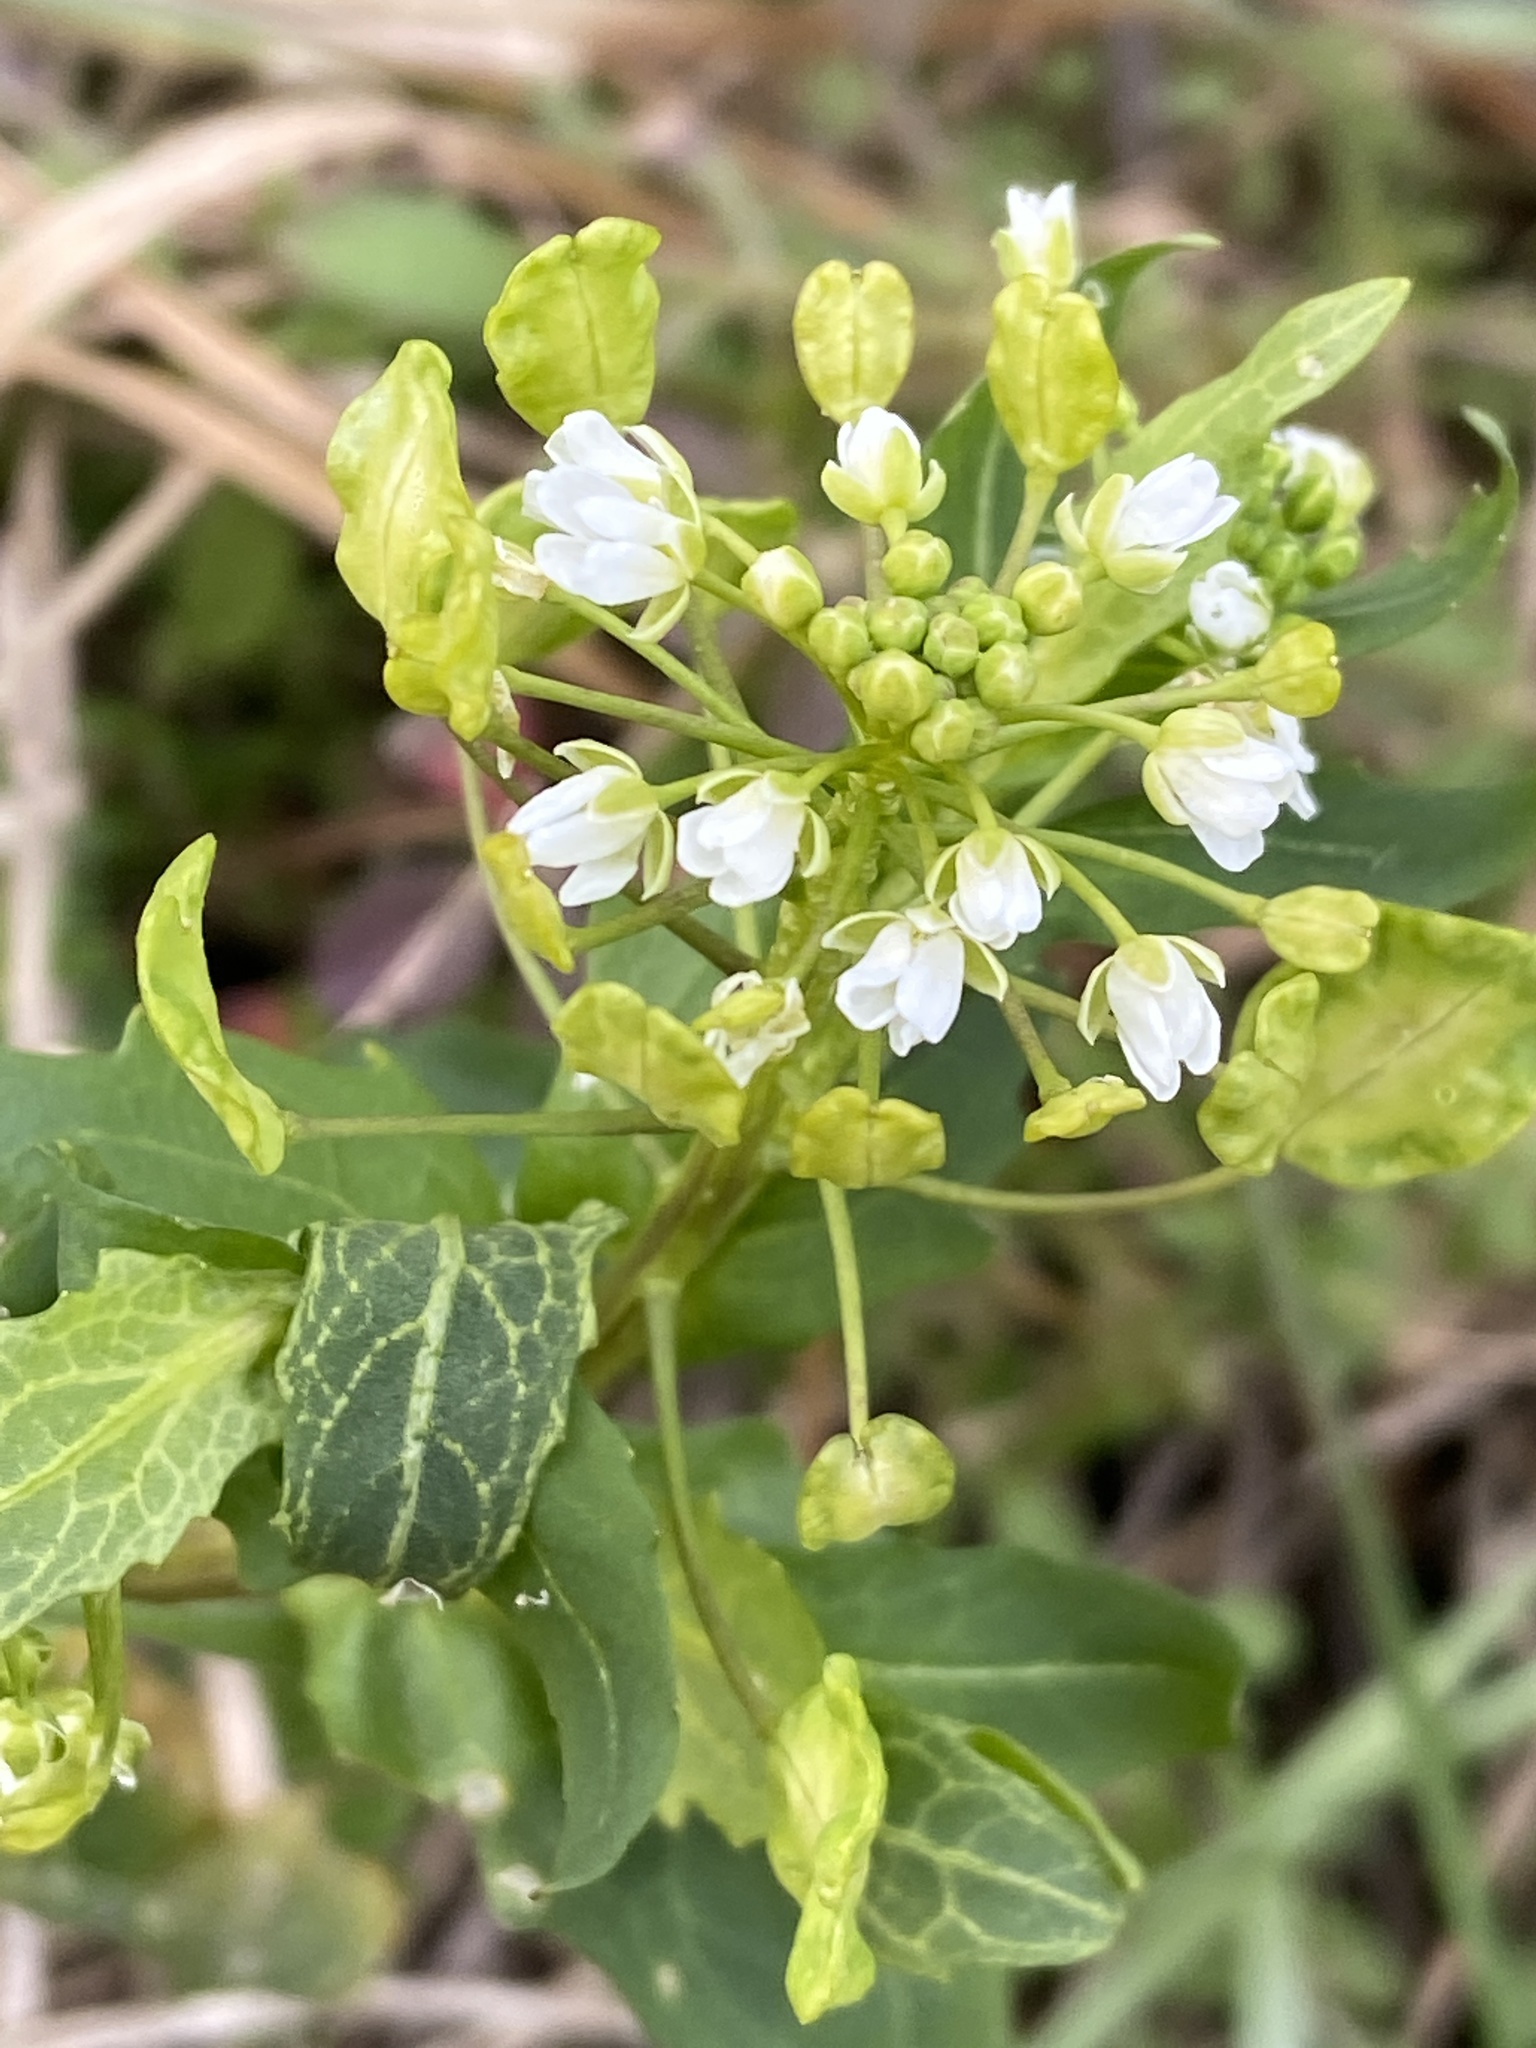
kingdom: Plantae
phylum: Tracheophyta
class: Magnoliopsida
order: Brassicales
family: Brassicaceae
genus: Thlaspi
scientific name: Thlaspi arvense
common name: Field pennycress
